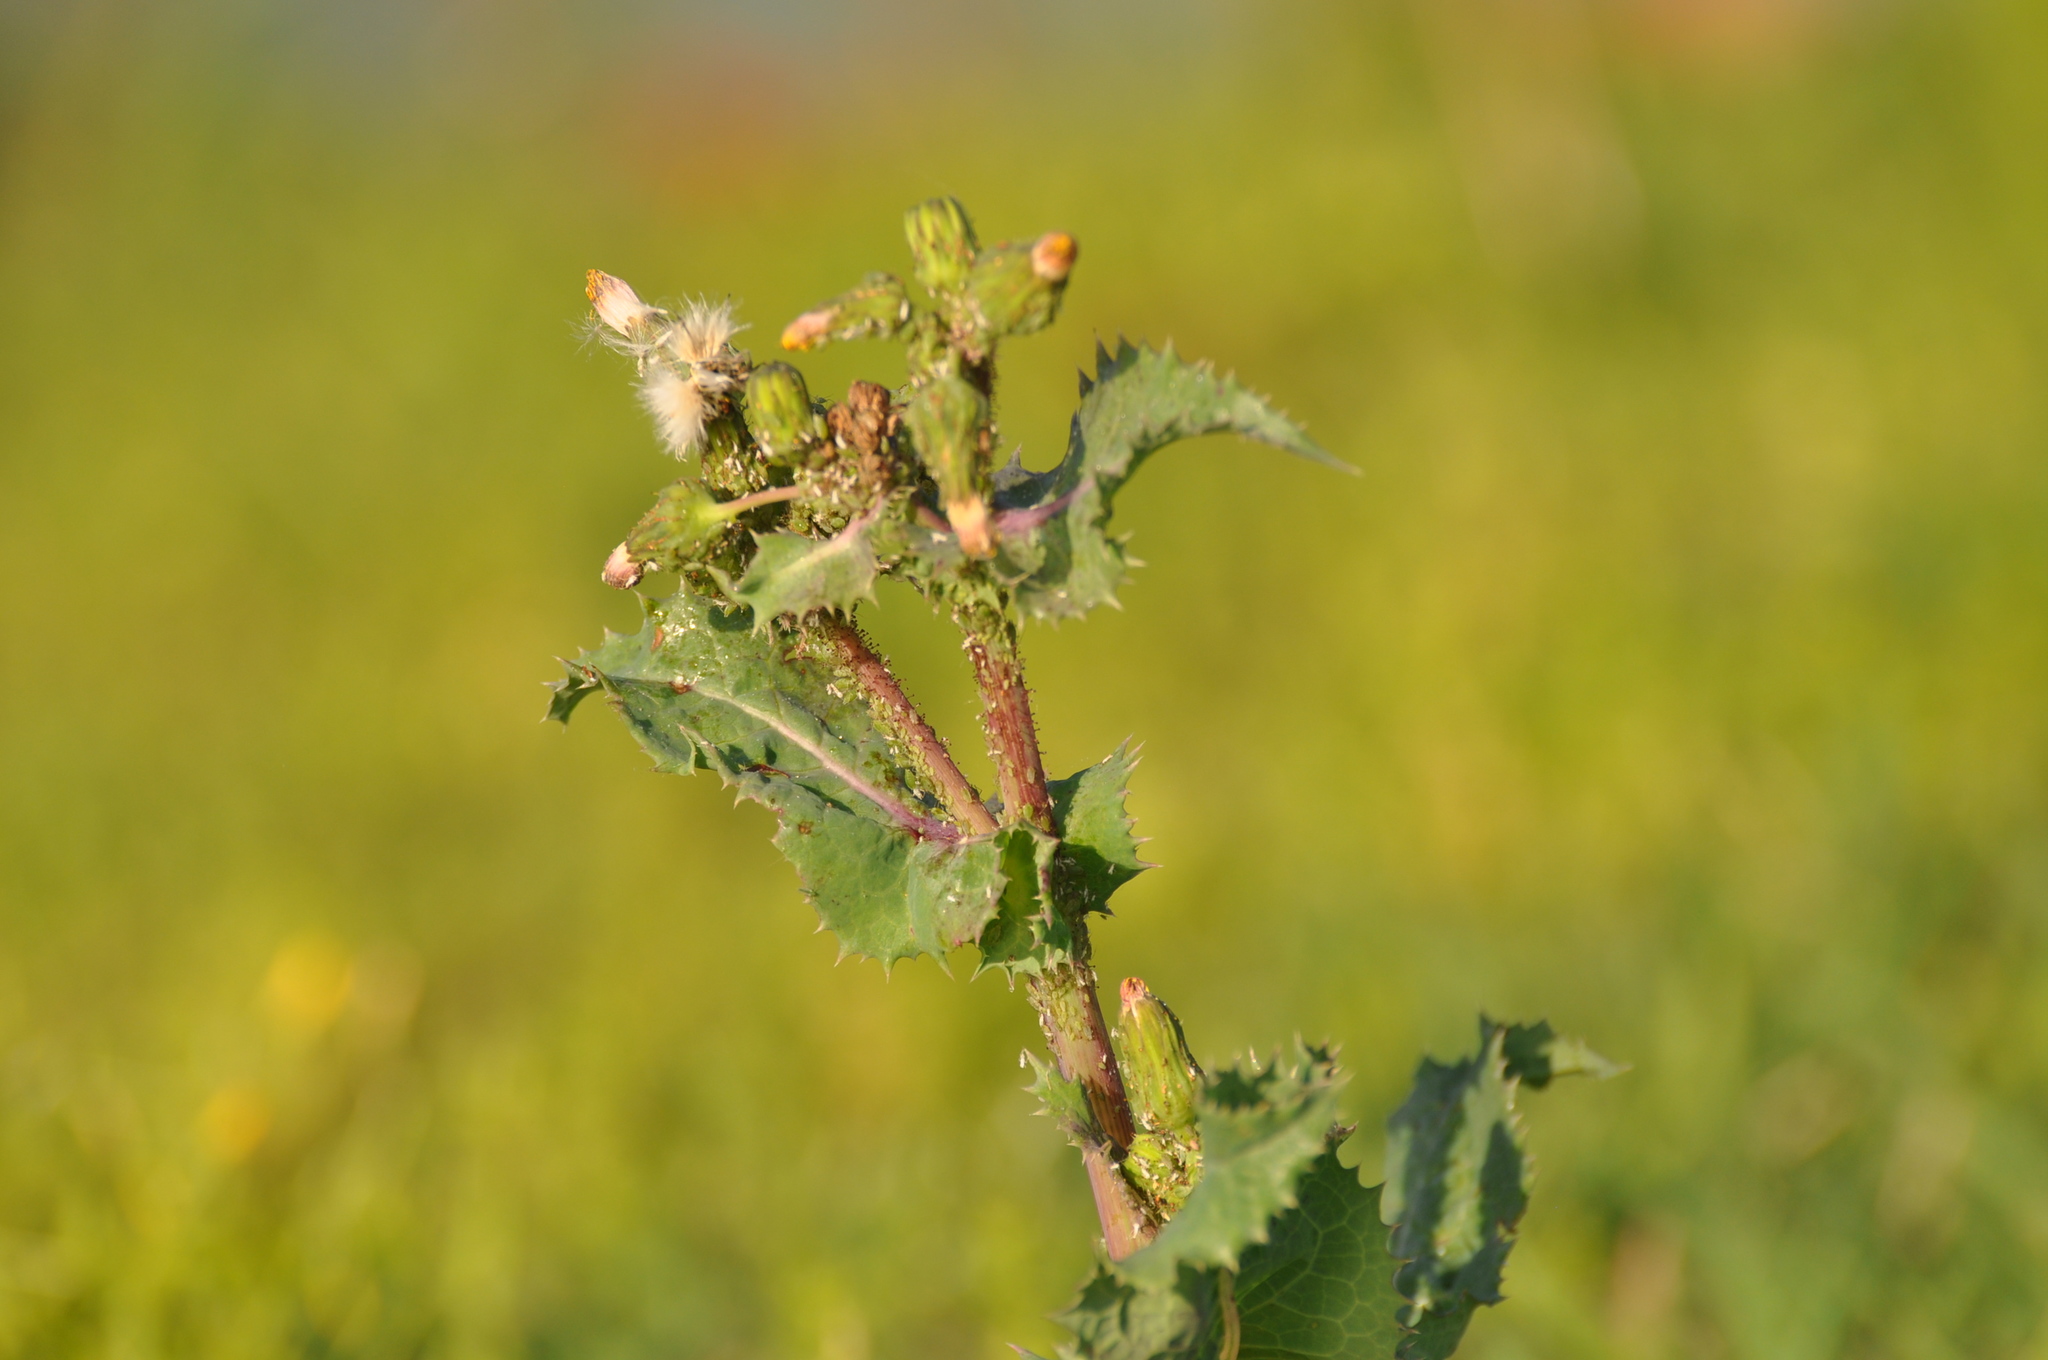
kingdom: Plantae
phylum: Tracheophyta
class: Magnoliopsida
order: Asterales
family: Asteraceae
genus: Sonchus
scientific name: Sonchus asper
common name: Prickly sow-thistle
